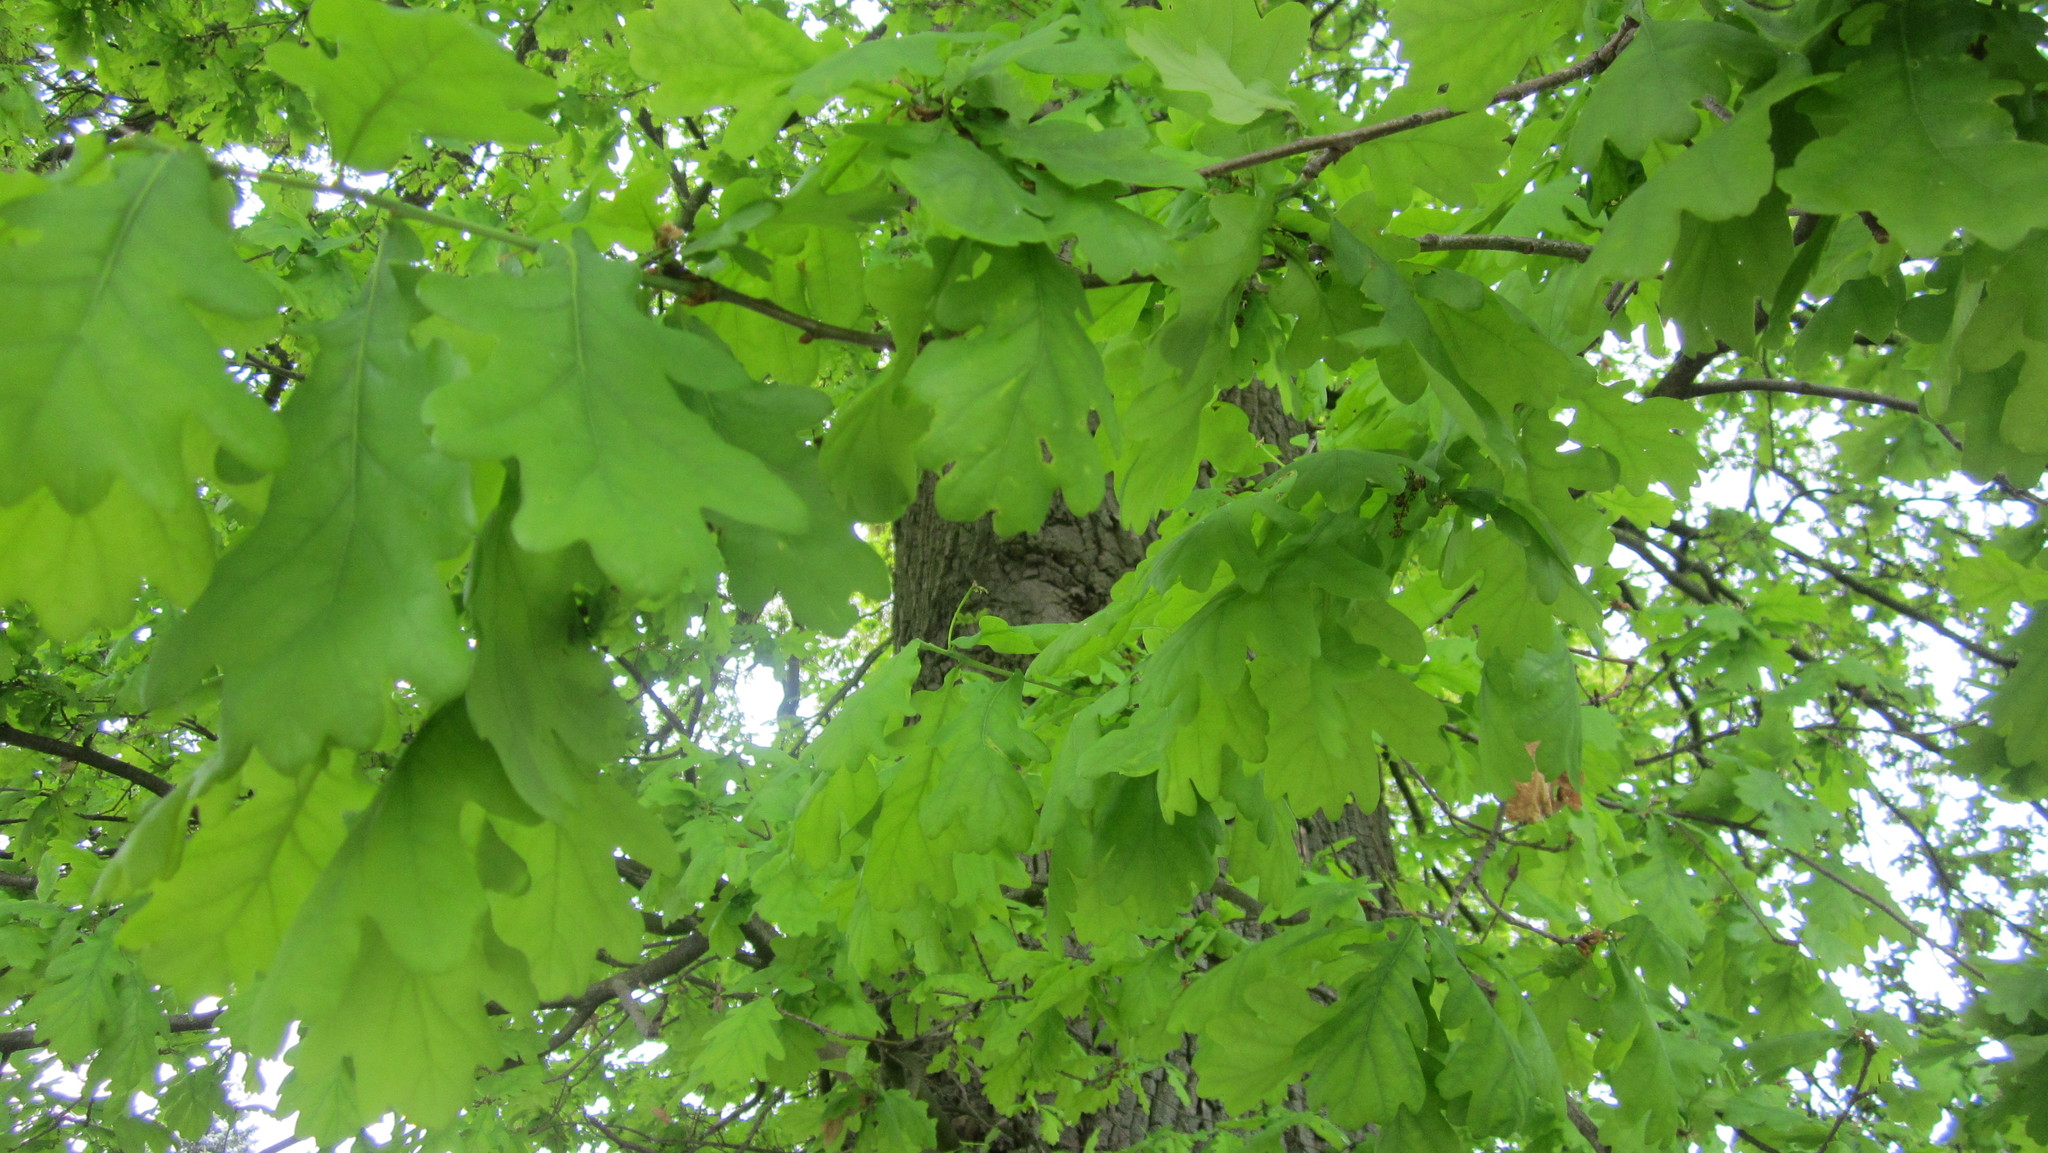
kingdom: Plantae
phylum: Tracheophyta
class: Magnoliopsida
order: Fagales
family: Fagaceae
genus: Quercus
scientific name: Quercus robur
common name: Pedunculate oak
